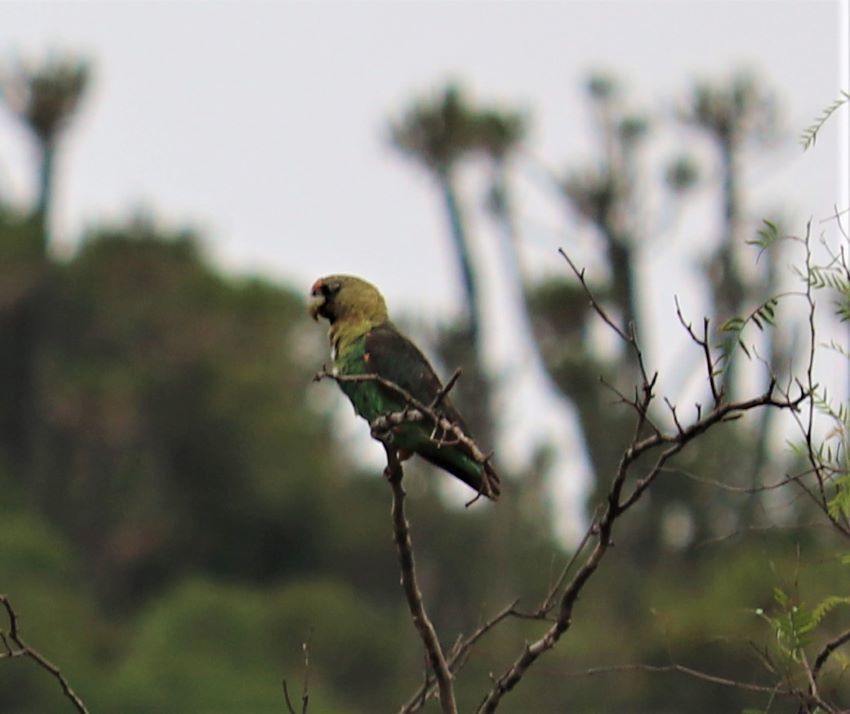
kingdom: Animalia
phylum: Chordata
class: Aves
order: Psittaciformes
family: Psittacidae
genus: Poicephalus
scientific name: Poicephalus robustus
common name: Cape parrot
